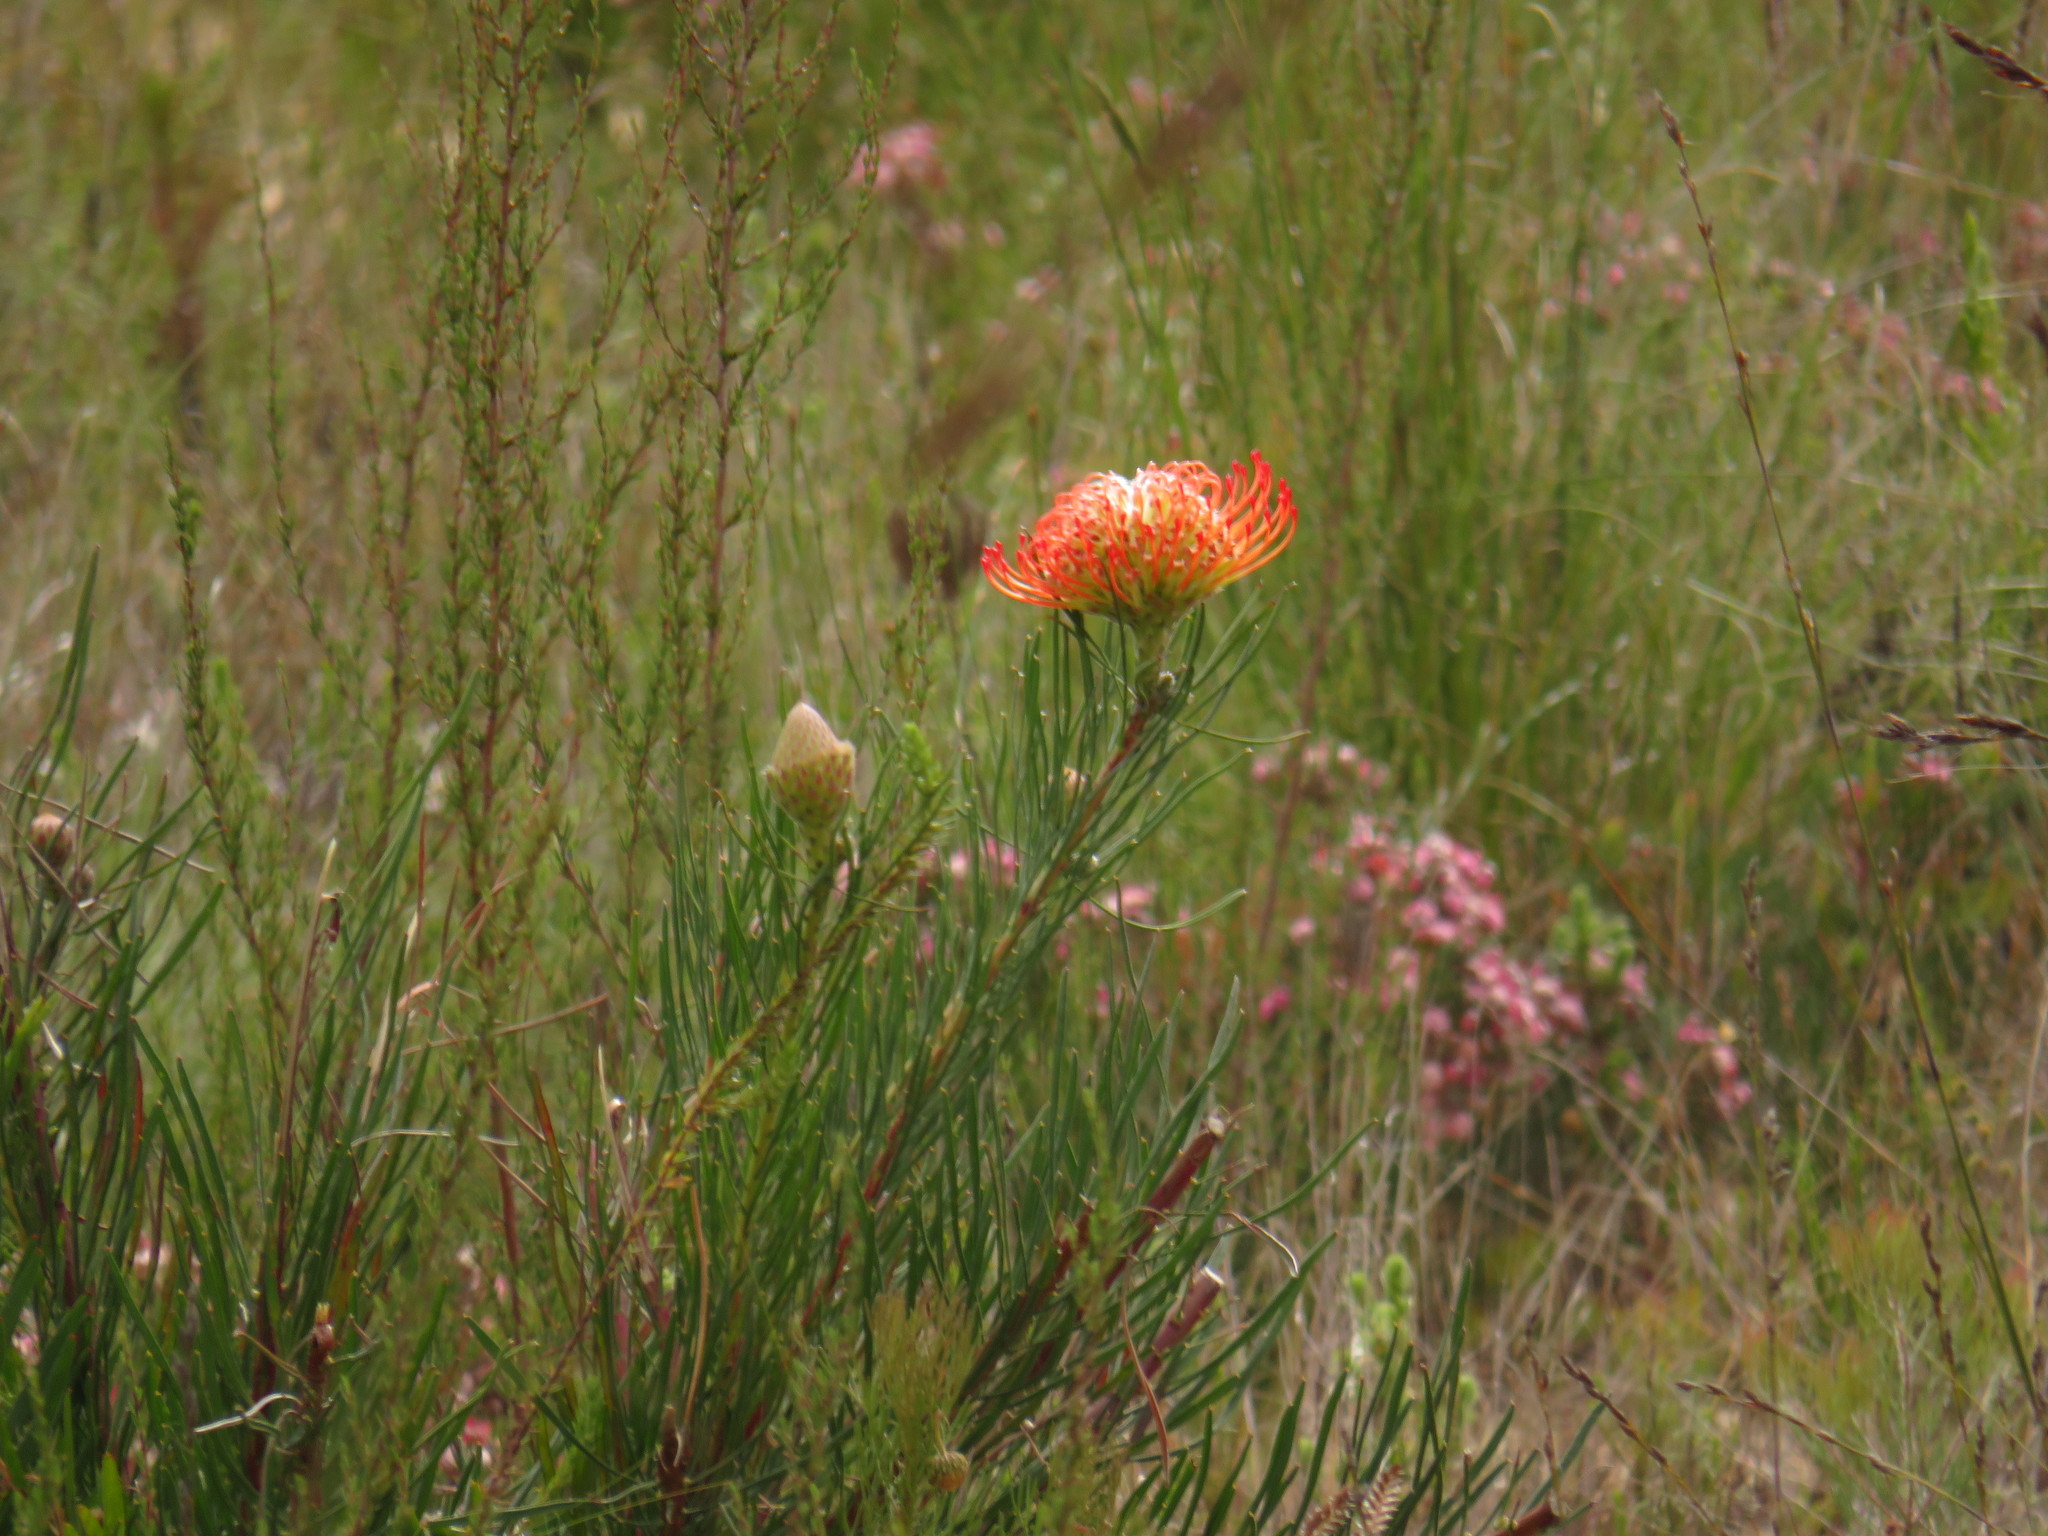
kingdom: Plantae
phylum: Tracheophyta
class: Magnoliopsida
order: Proteales
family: Proteaceae
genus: Leucospermum
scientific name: Leucospermum lineare
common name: Needle-leaf pincushion
